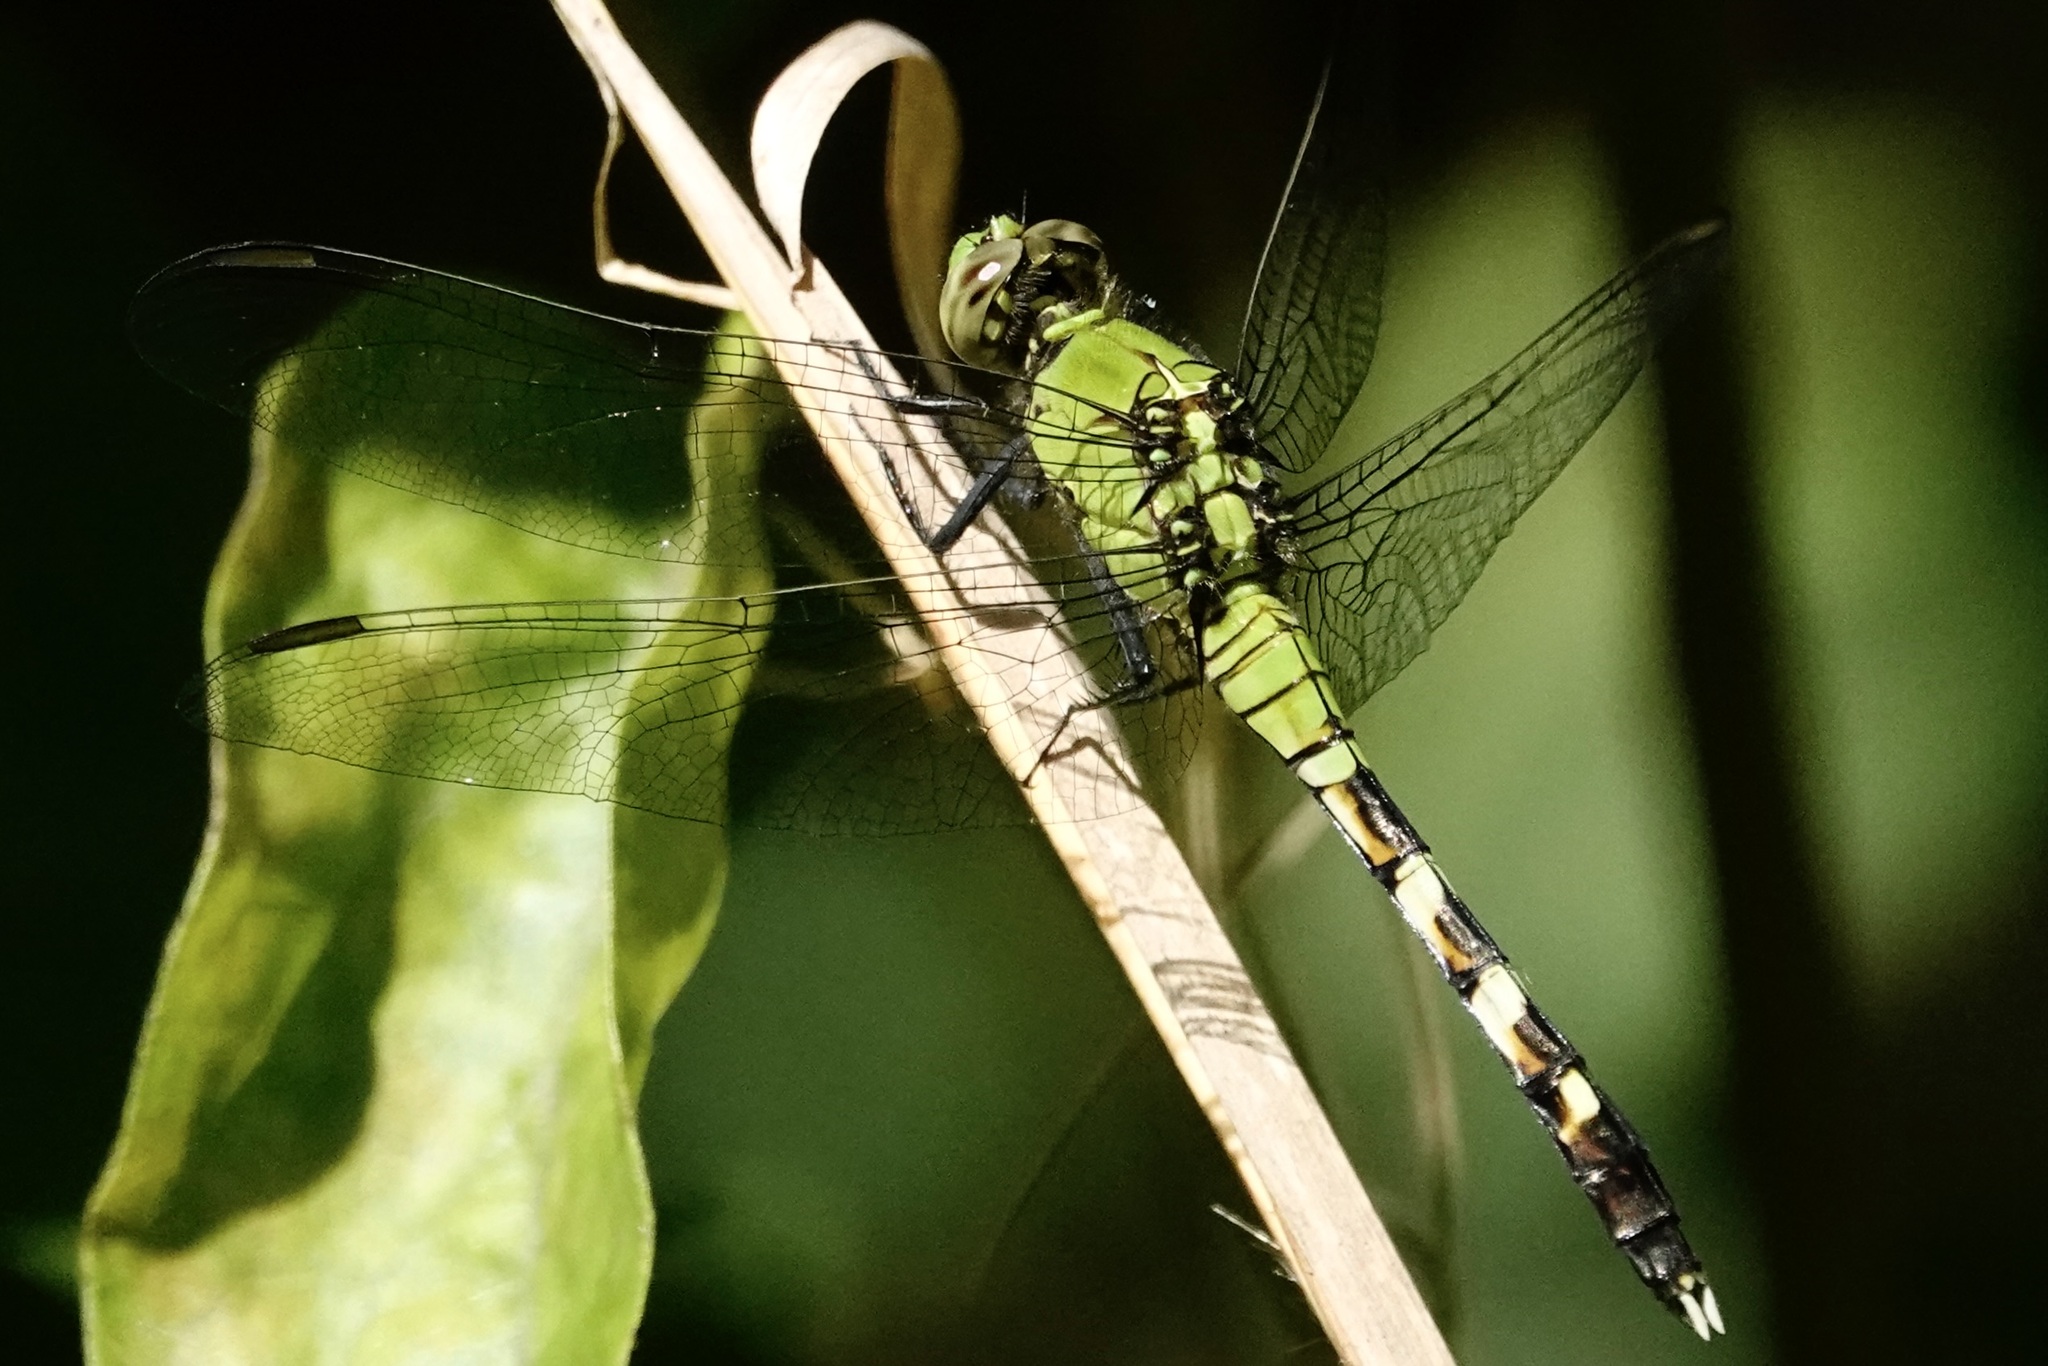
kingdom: Animalia
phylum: Arthropoda
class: Insecta
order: Odonata
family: Libellulidae
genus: Erythemis
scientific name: Erythemis simplicicollis
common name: Eastern pondhawk
